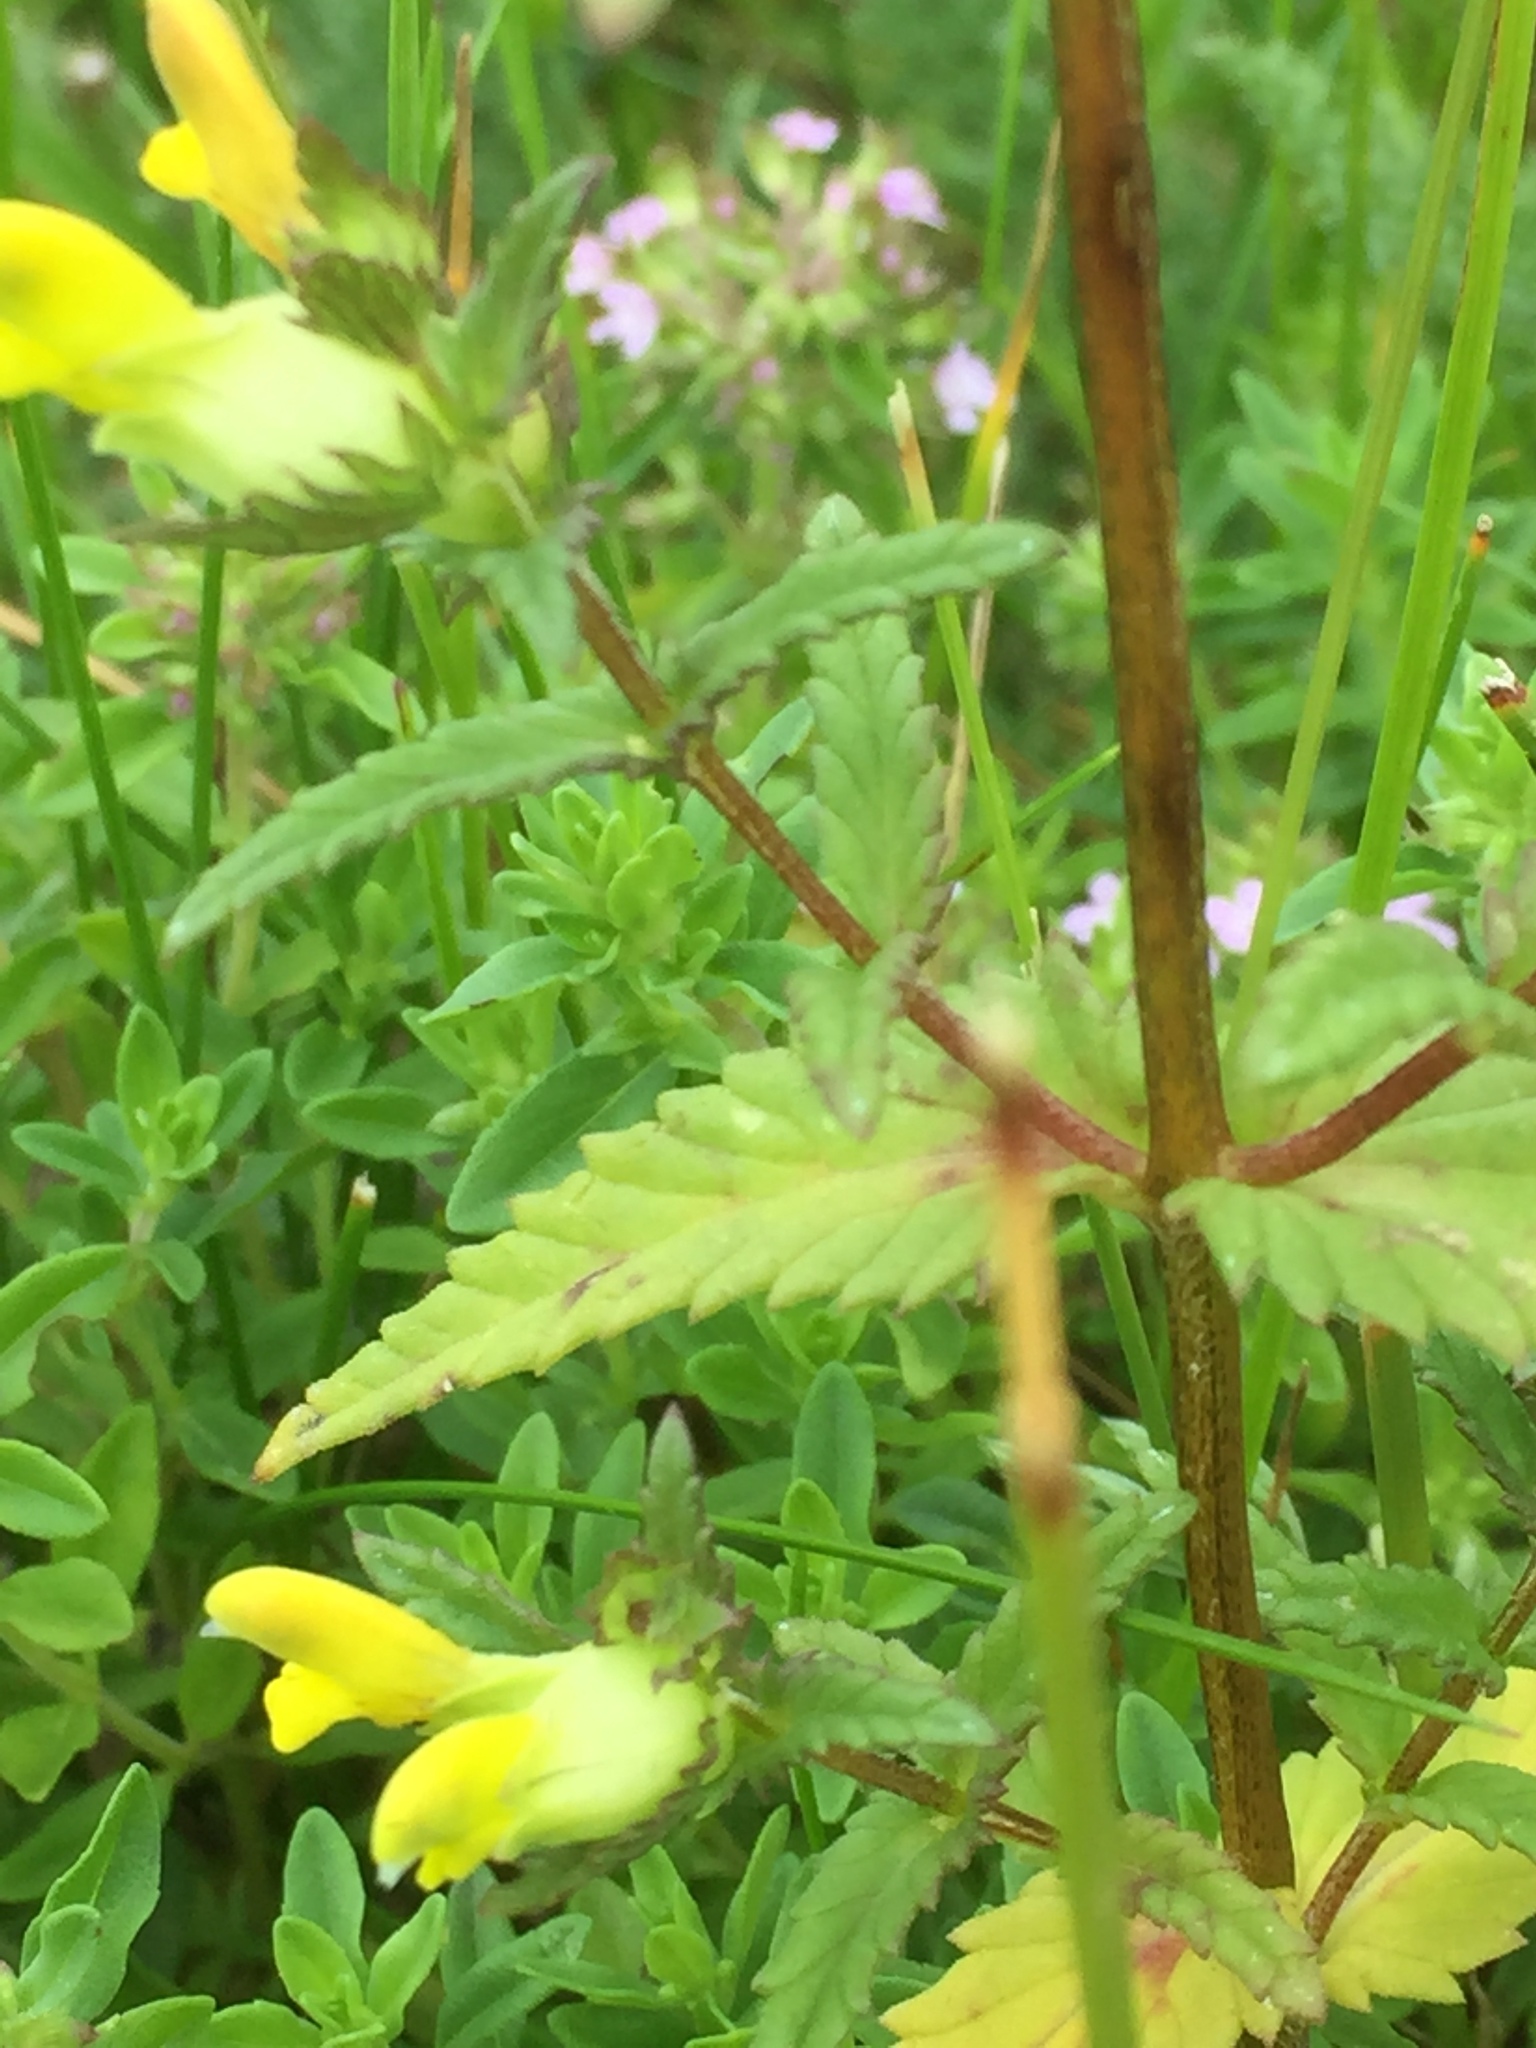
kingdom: Plantae
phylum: Tracheophyta
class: Magnoliopsida
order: Lamiales
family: Orobanchaceae
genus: Rhinanthus
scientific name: Rhinanthus minor
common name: Yellow-rattle
